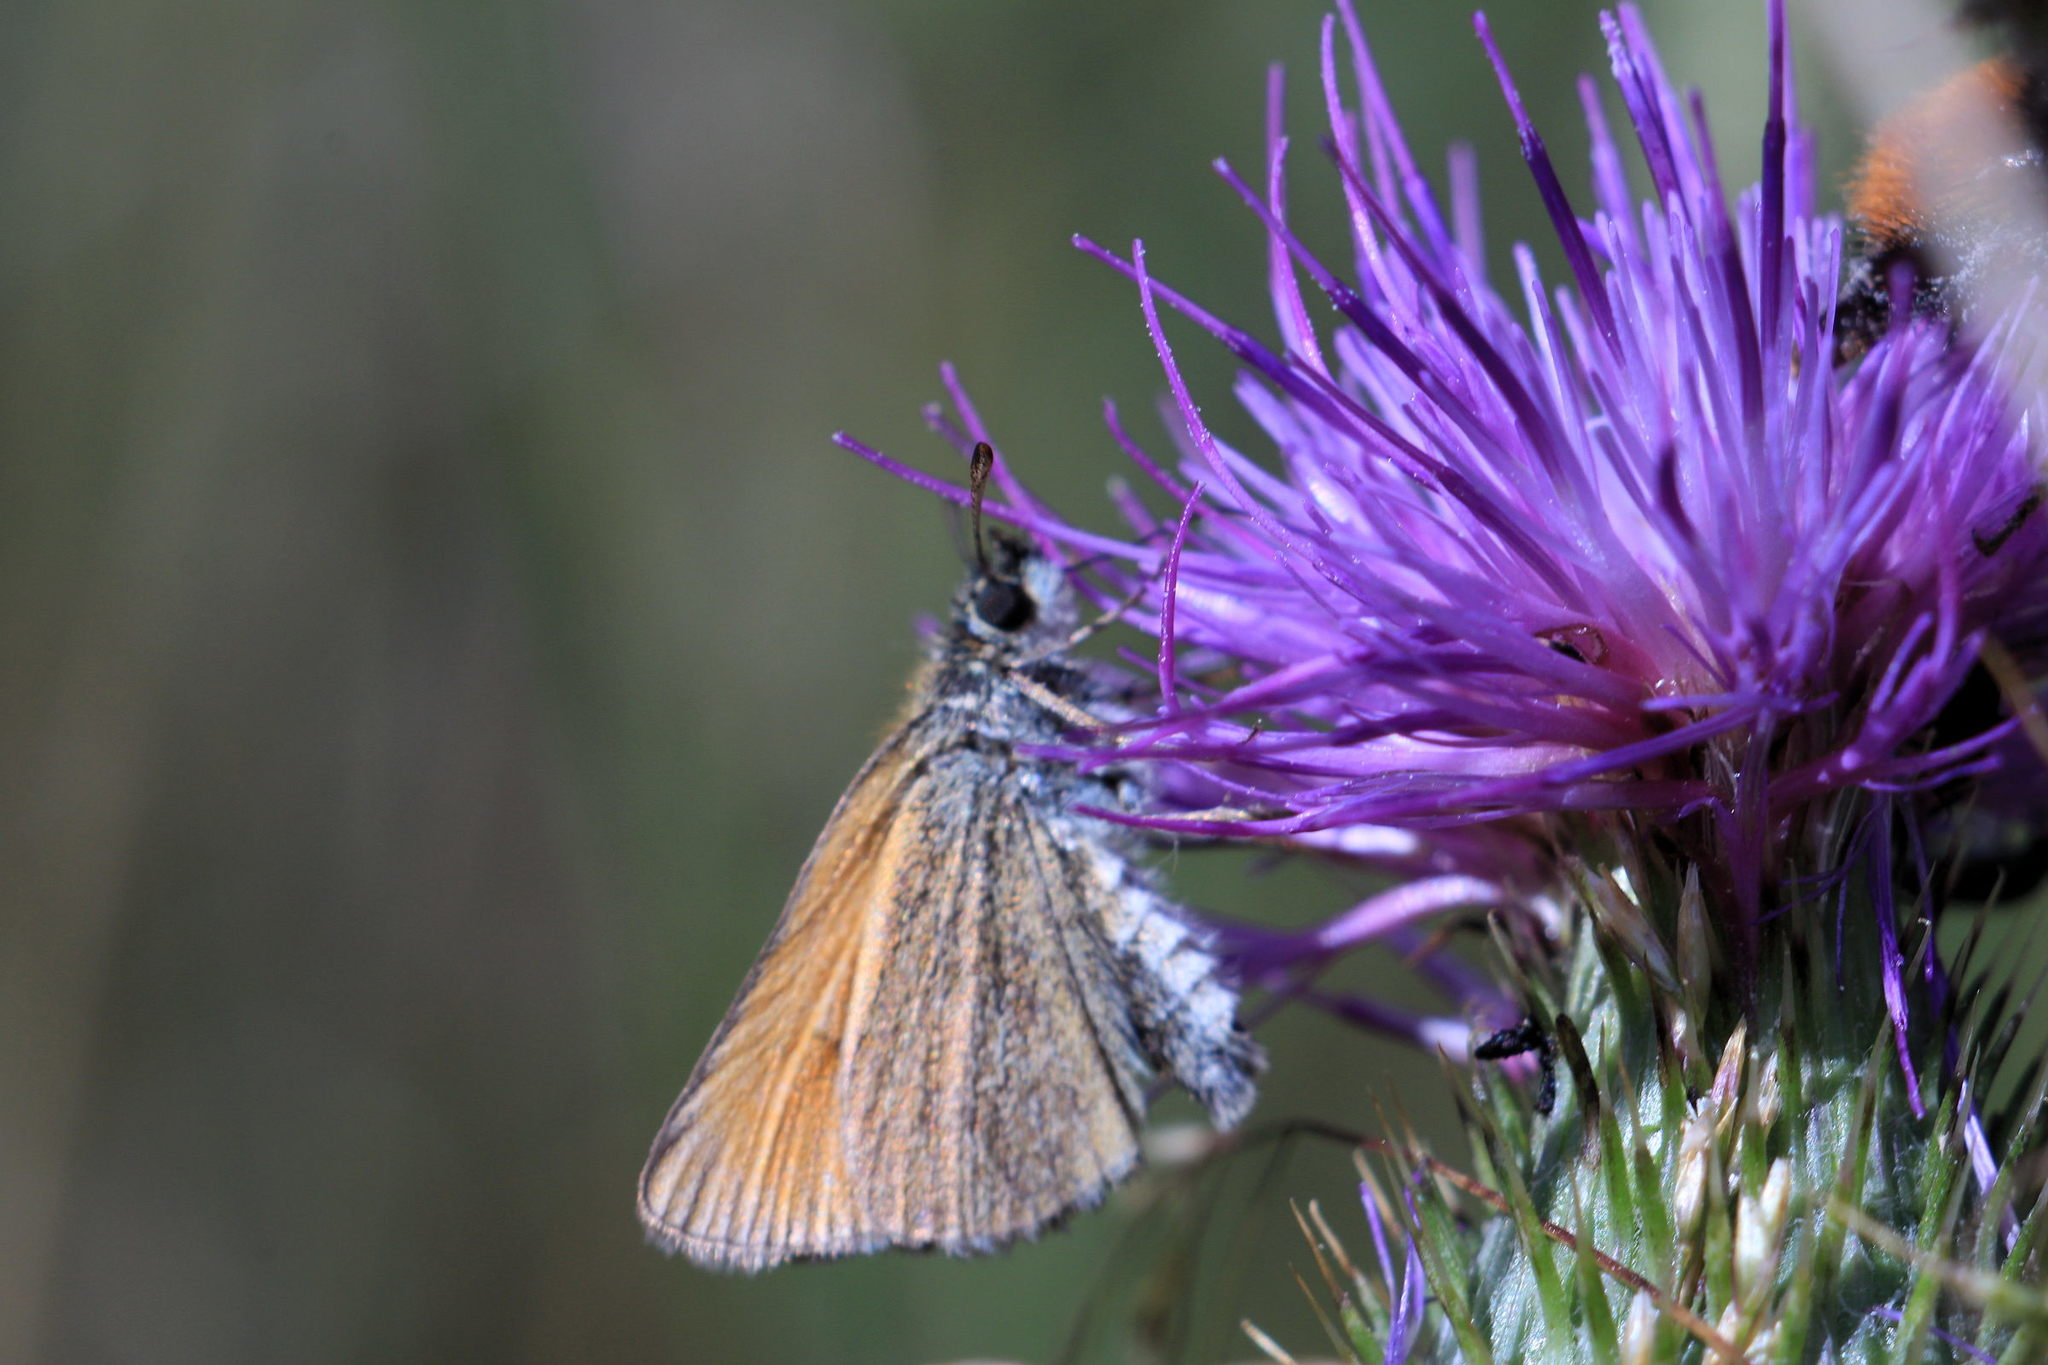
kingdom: Animalia
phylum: Arthropoda
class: Insecta
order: Lepidoptera
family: Hesperiidae
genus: Thymelicus
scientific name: Thymelicus lineola
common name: Essex skipper
